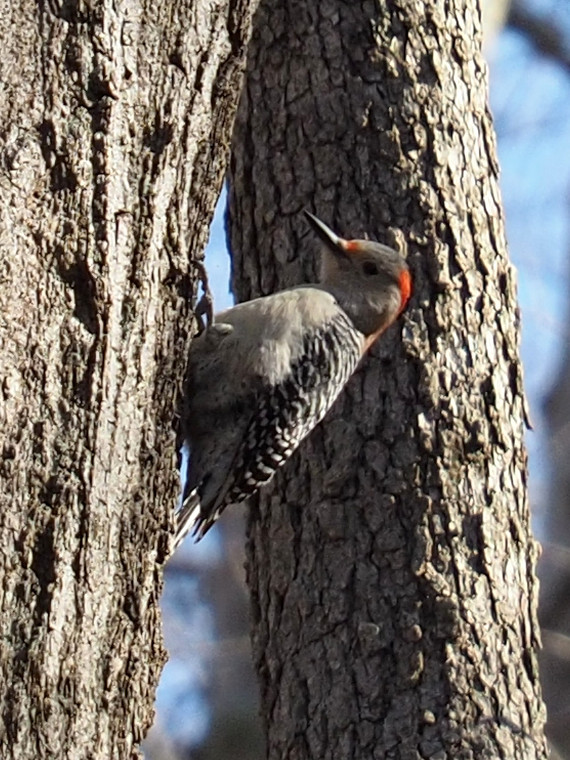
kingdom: Animalia
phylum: Chordata
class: Aves
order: Piciformes
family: Picidae
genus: Melanerpes
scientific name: Melanerpes carolinus
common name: Red-bellied woodpecker
